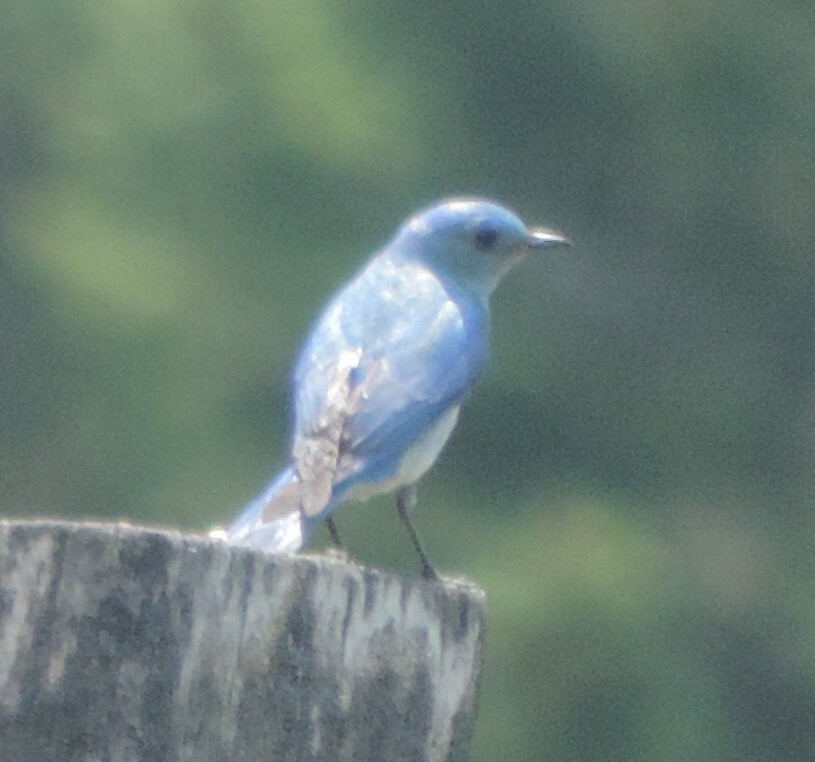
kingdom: Animalia
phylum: Chordata
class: Aves
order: Passeriformes
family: Turdidae
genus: Sialia
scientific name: Sialia currucoides
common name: Mountain bluebird
